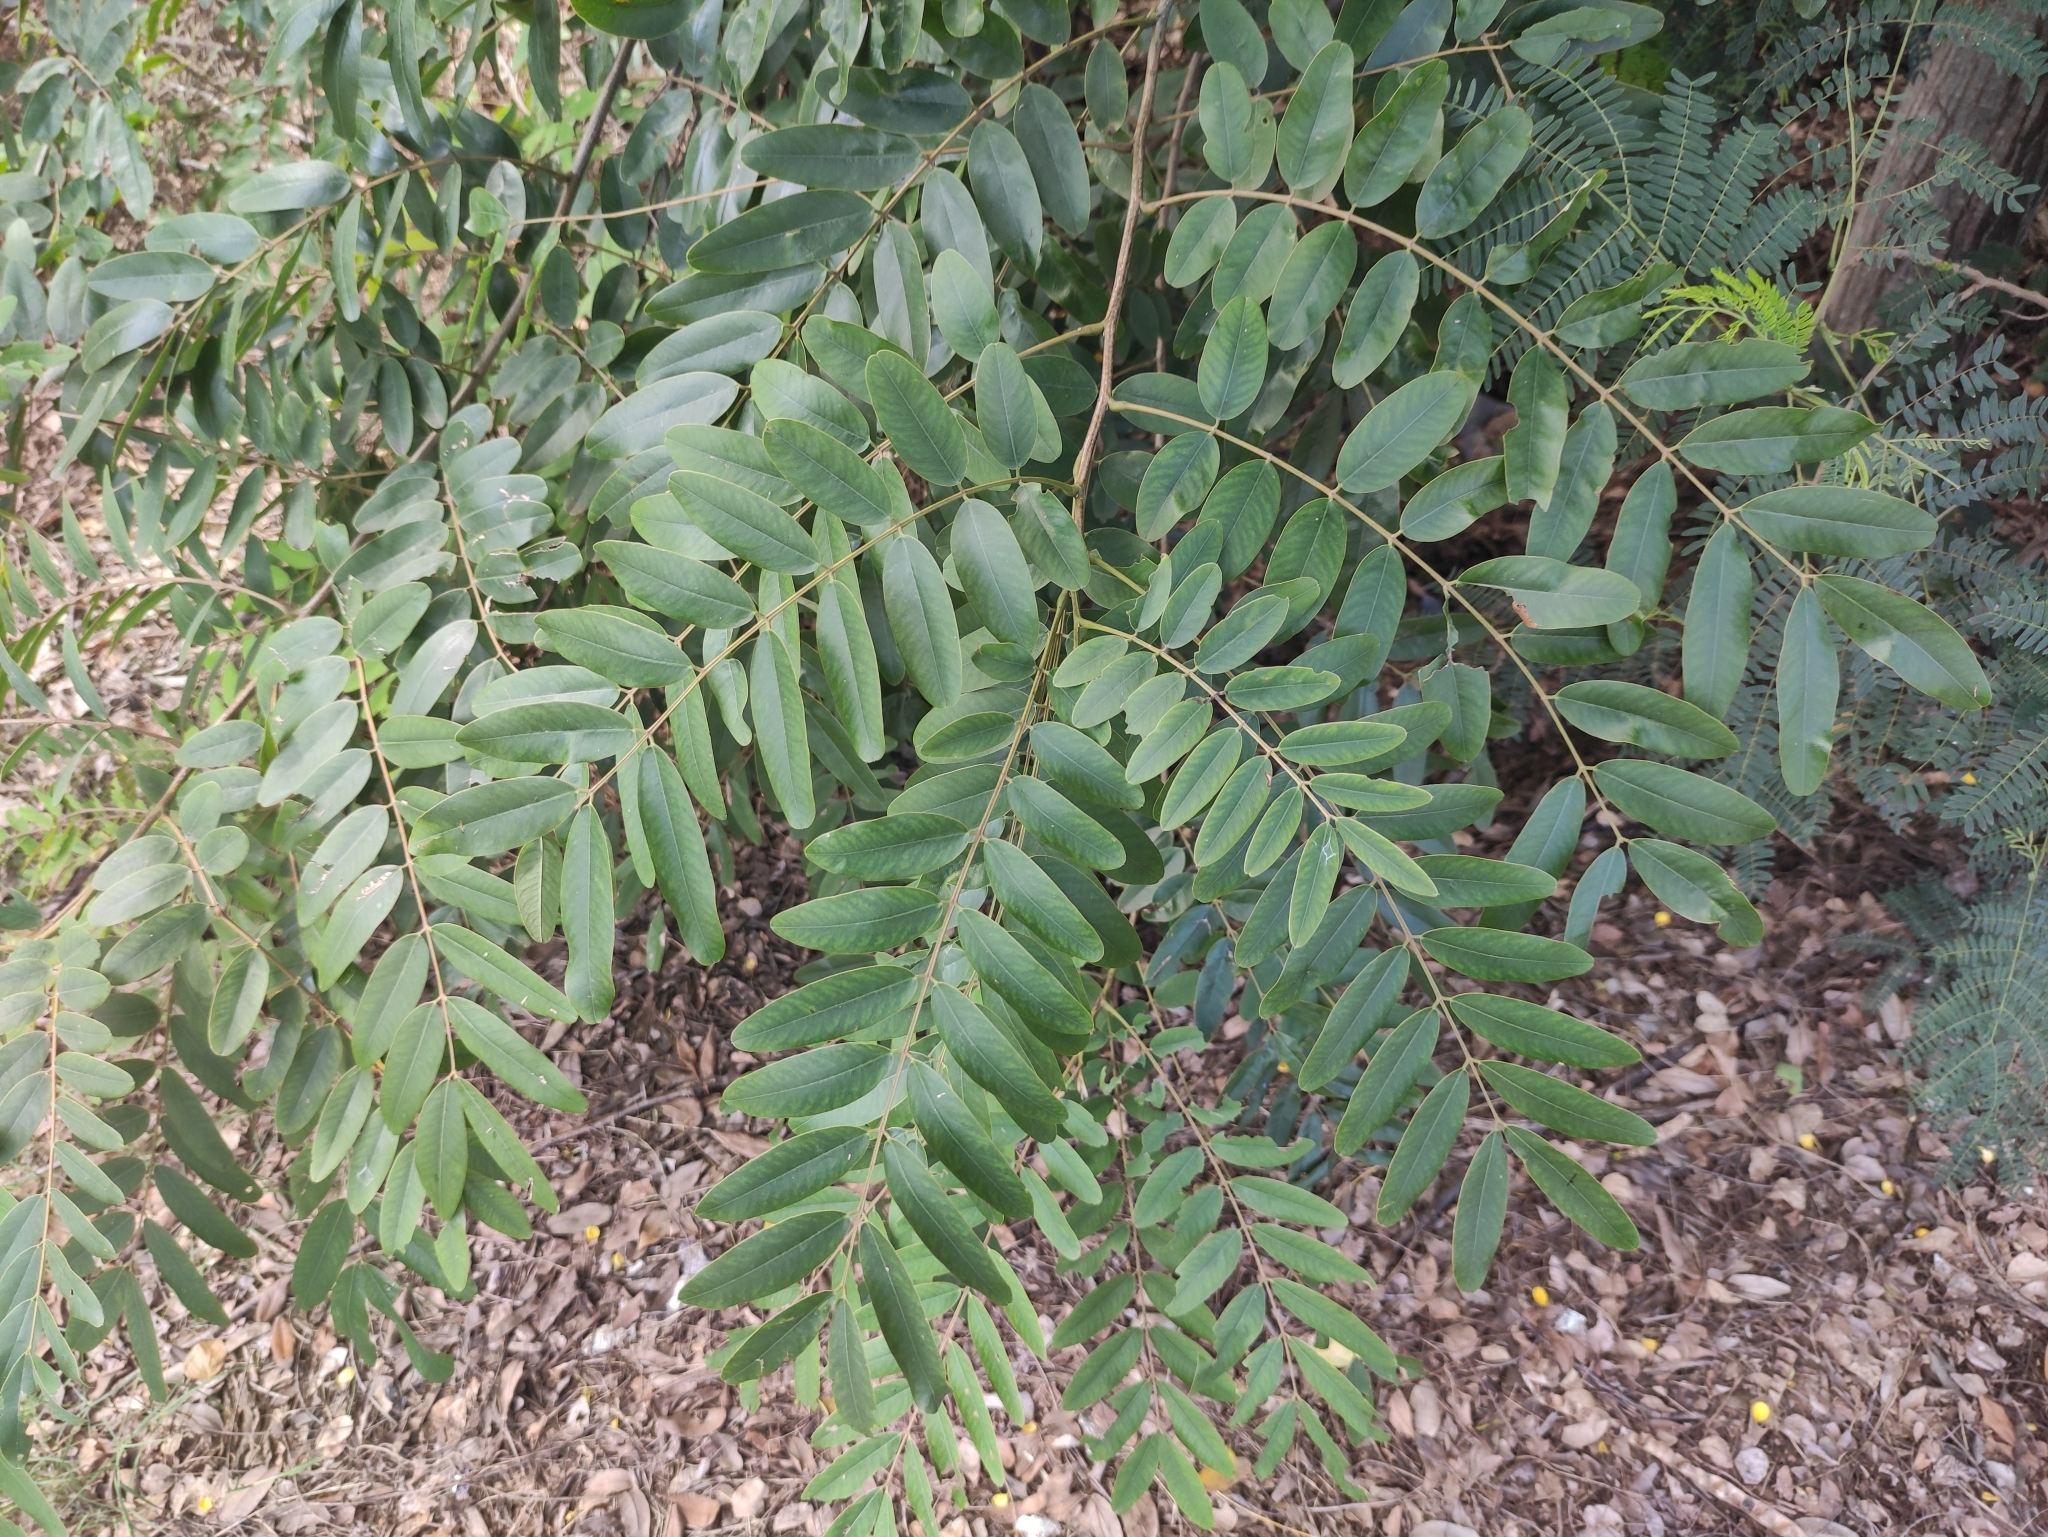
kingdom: Plantae
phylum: Tracheophyta
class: Magnoliopsida
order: Fabales
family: Fabaceae
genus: Senna
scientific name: Senna siamea
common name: Siamese cassia
